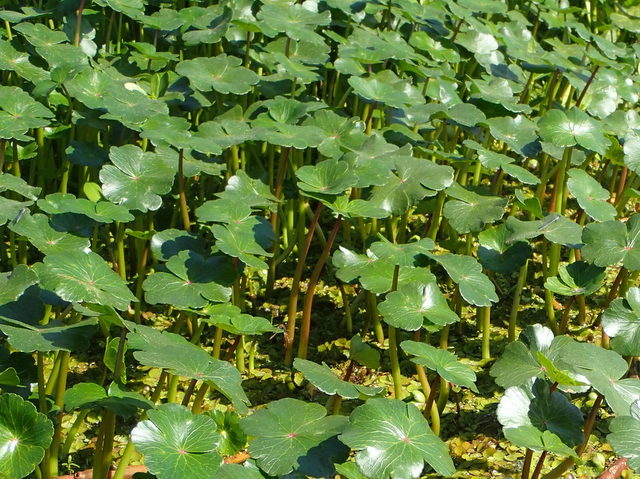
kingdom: Plantae
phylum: Tracheophyta
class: Magnoliopsida
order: Apiales
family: Araliaceae
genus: Hydrocotyle
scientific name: Hydrocotyle ranunculoides
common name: Floating pennywort
